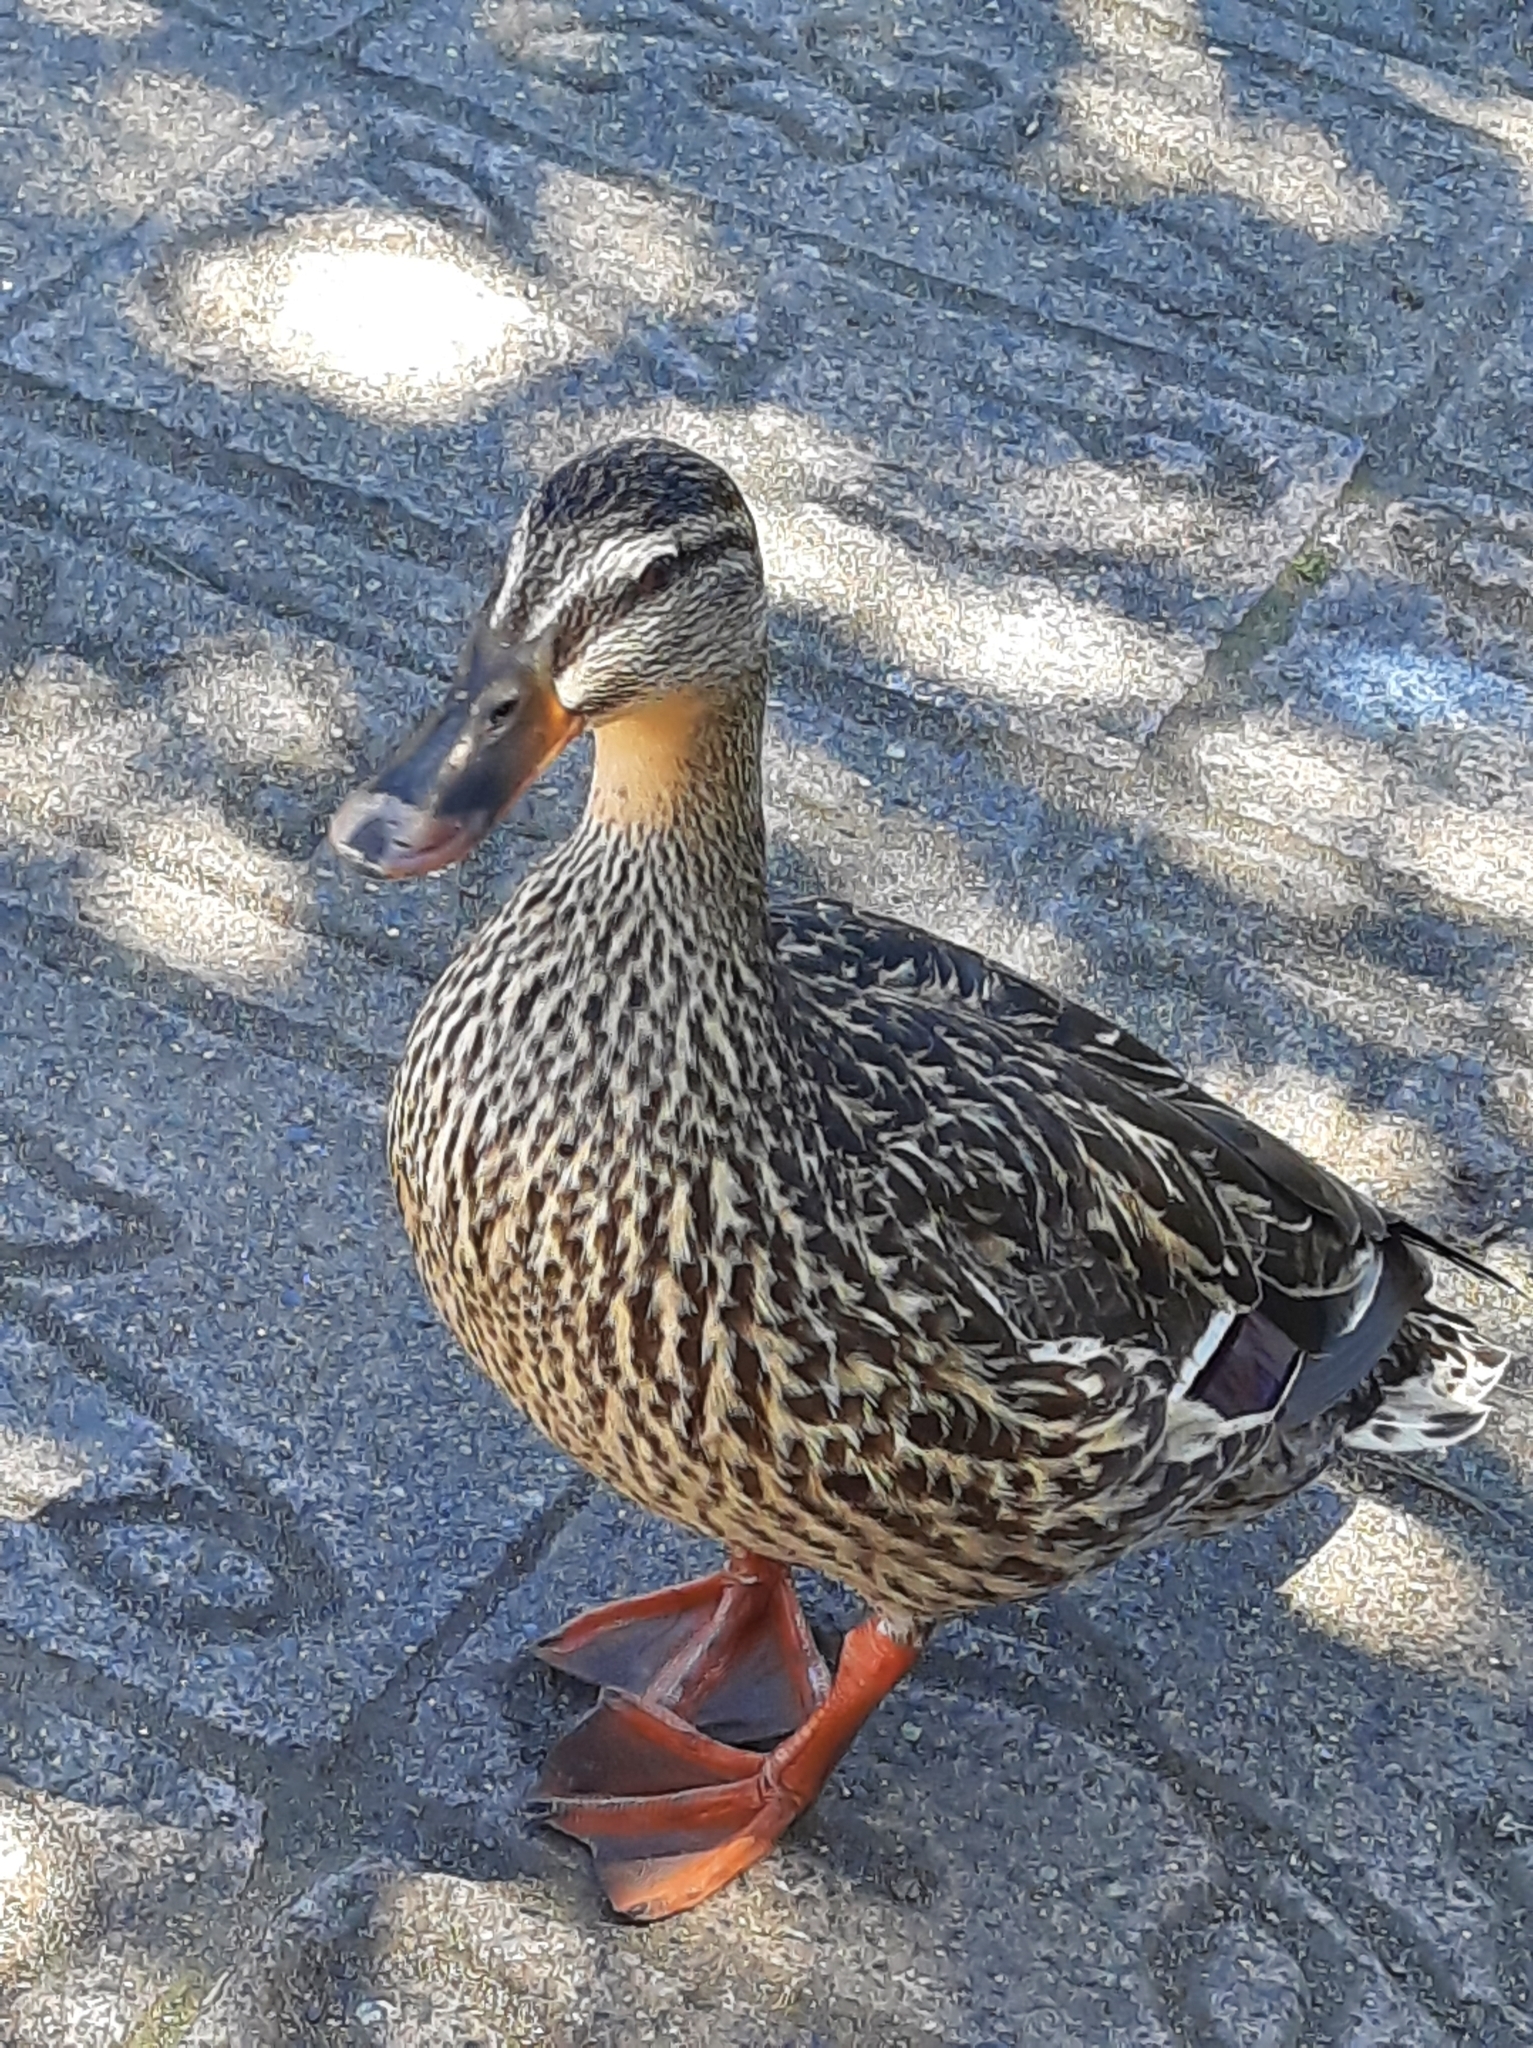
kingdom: Animalia
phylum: Chordata
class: Aves
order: Anseriformes
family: Anatidae
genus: Anas
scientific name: Anas platyrhynchos
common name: Mallard
